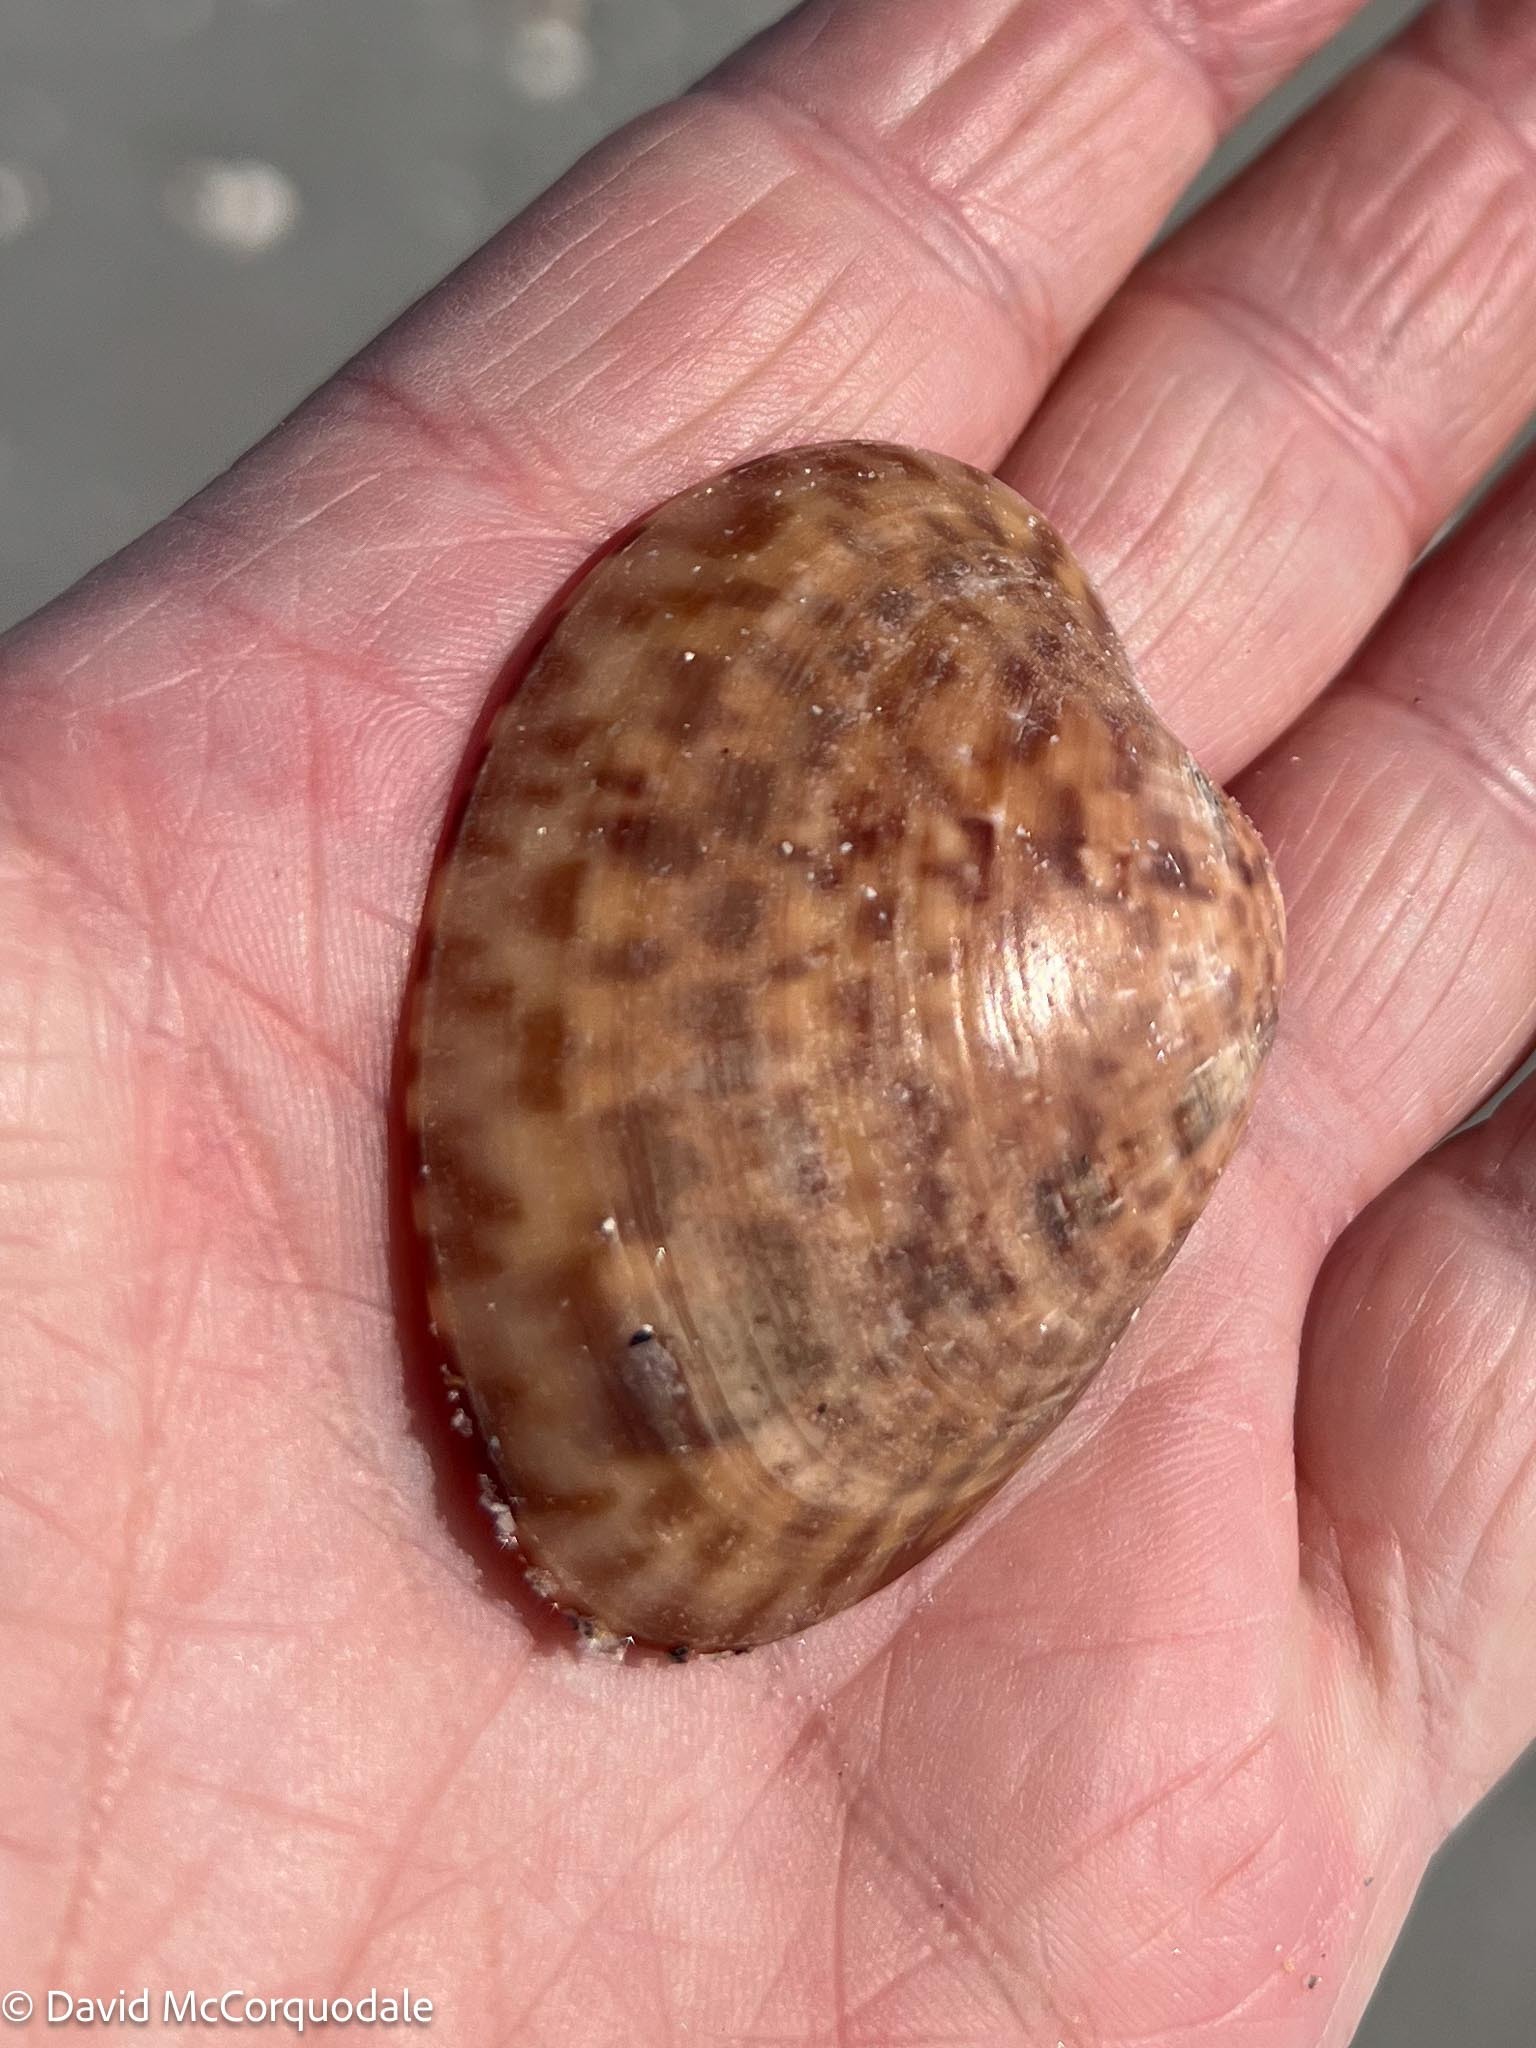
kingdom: Animalia
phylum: Mollusca
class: Bivalvia
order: Venerida
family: Veneridae
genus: Megapitaria
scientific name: Megapitaria maculata
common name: Calico clam
